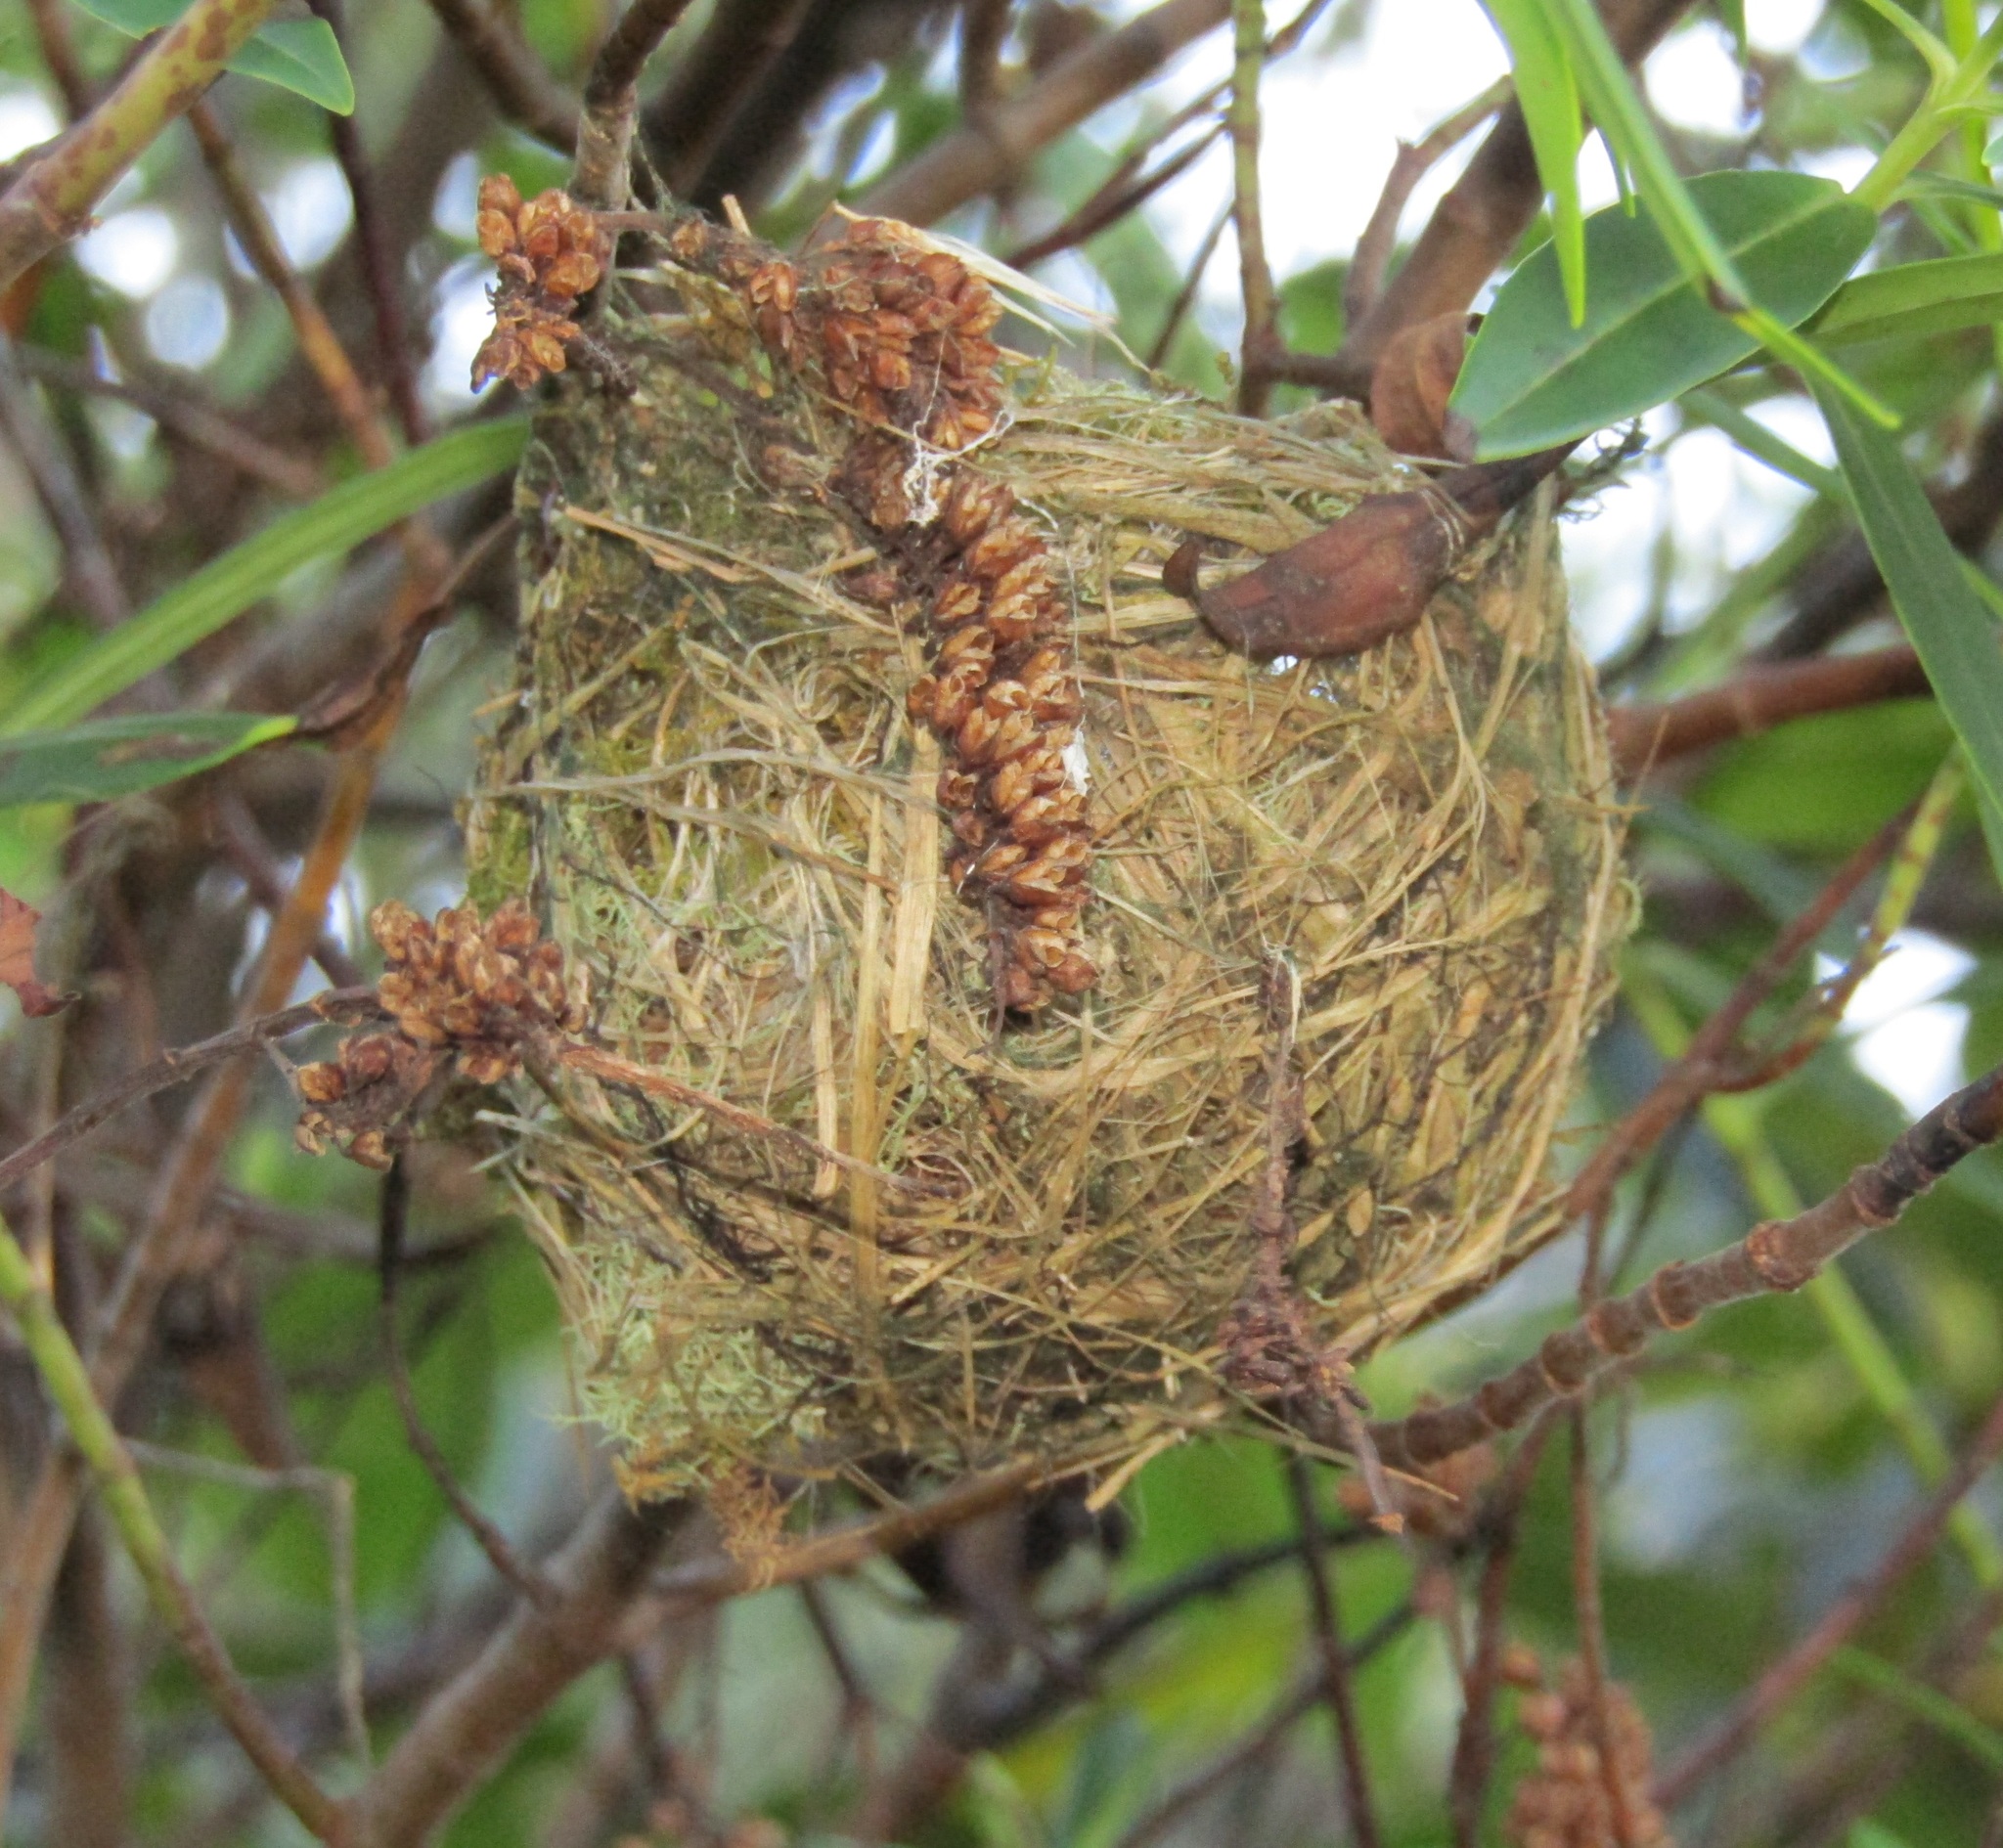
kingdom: Animalia
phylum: Chordata
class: Aves
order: Passeriformes
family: Zosteropidae
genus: Zosterops
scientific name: Zosterops lateralis
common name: Silvereye
